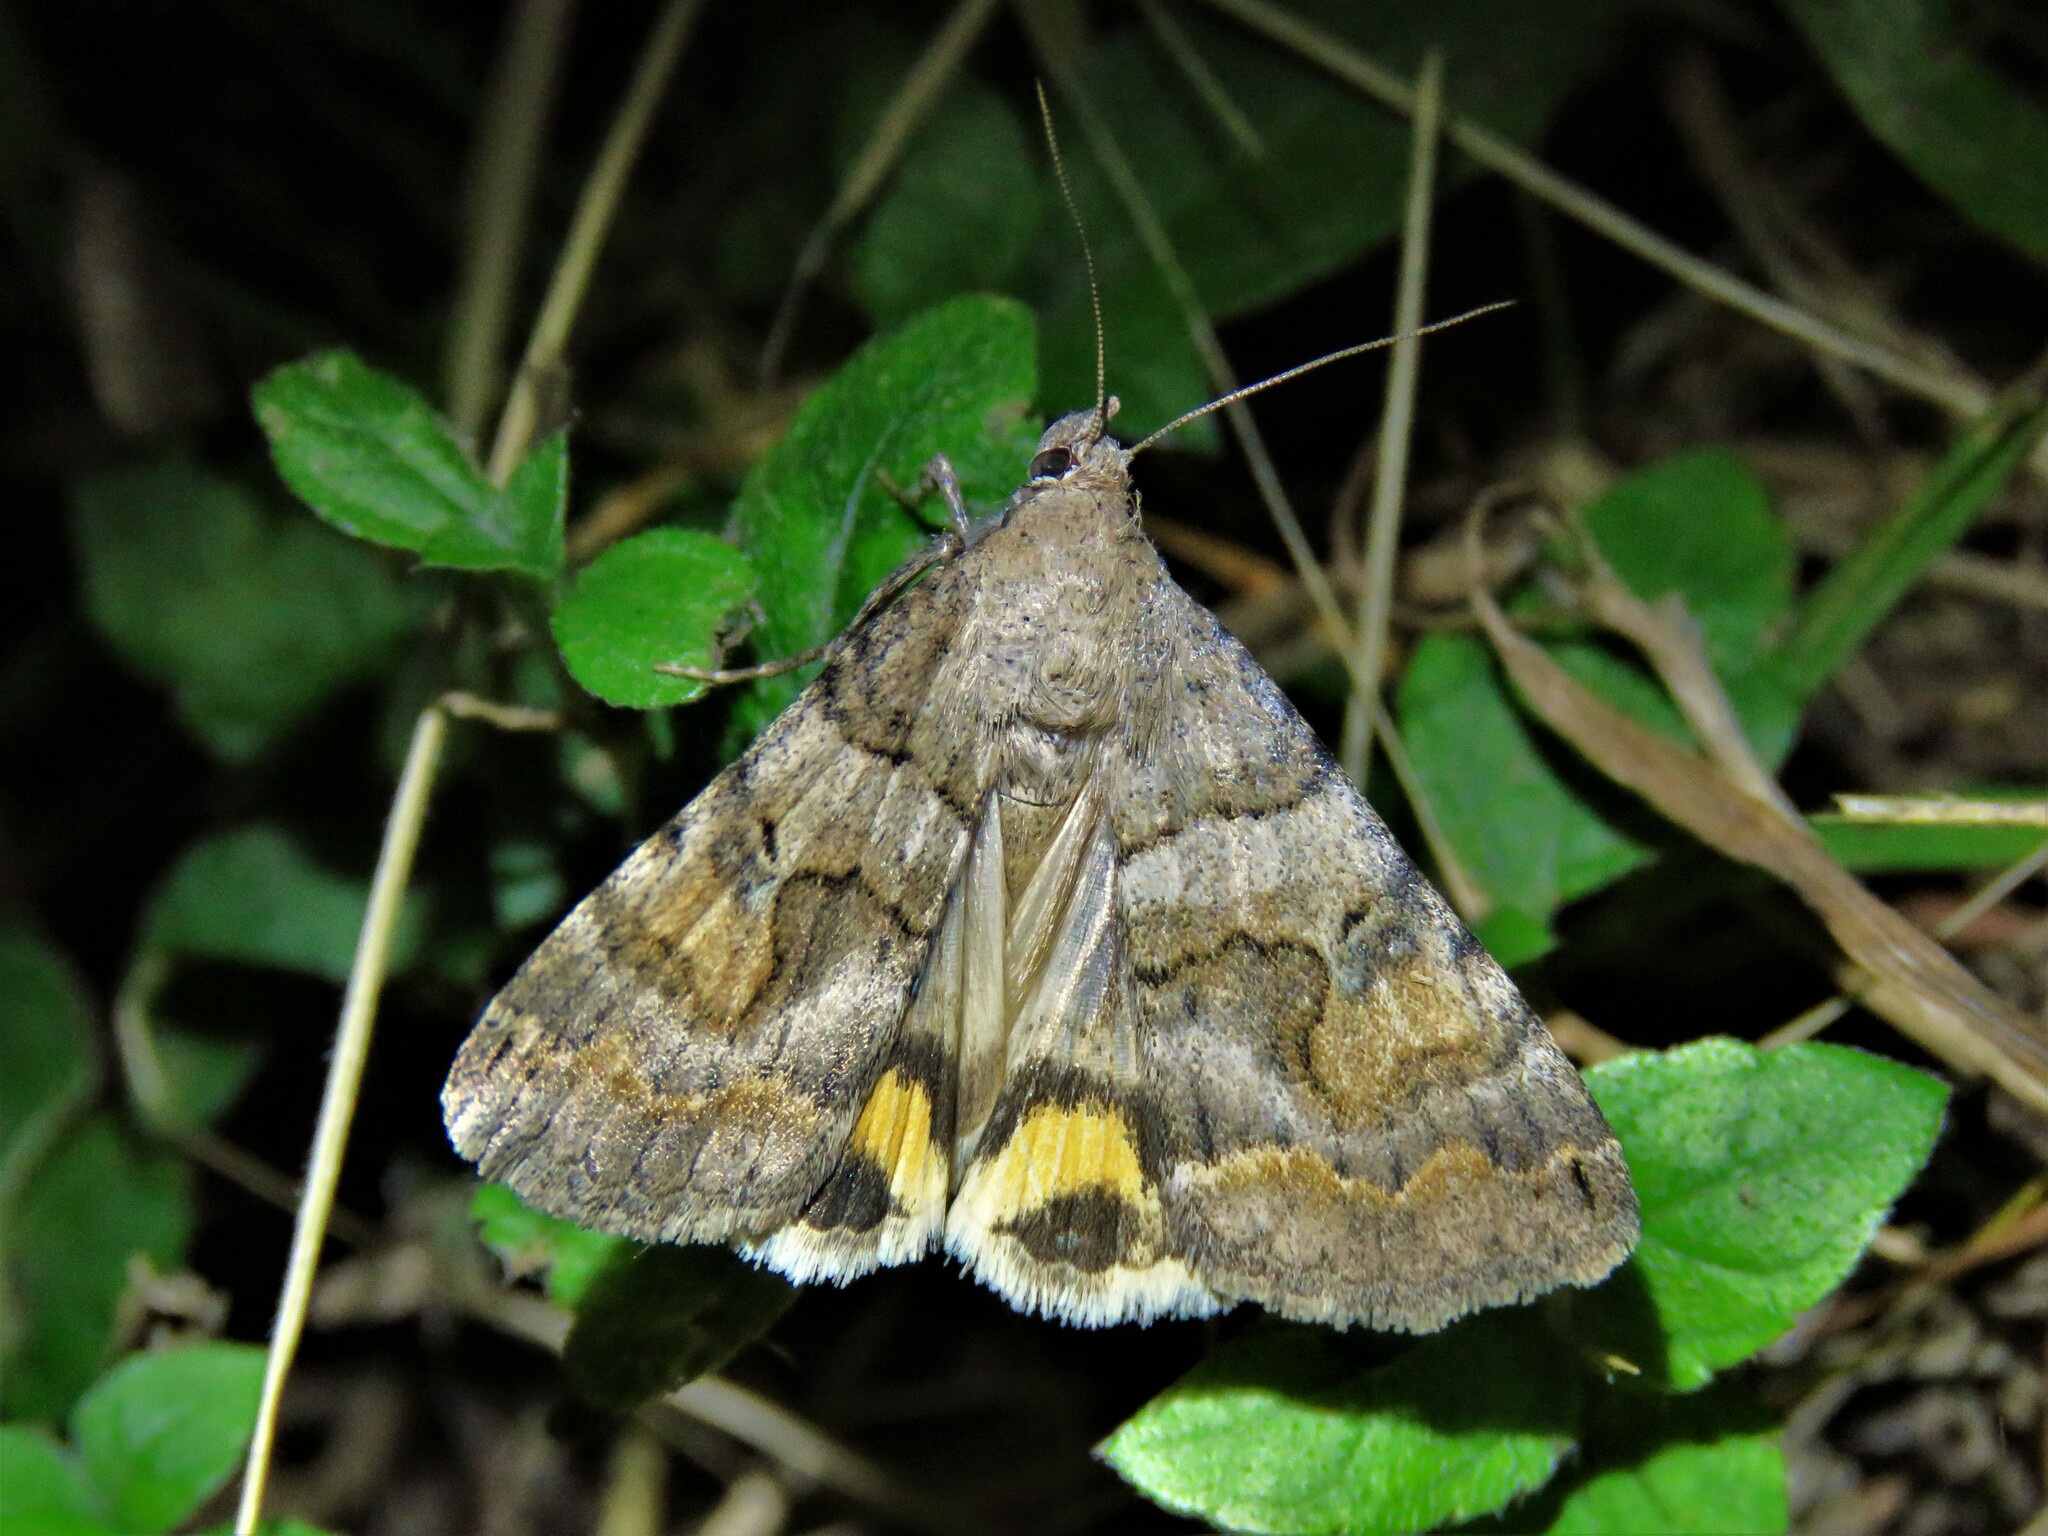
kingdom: Animalia
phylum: Arthropoda
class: Insecta
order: Lepidoptera
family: Erebidae
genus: Bulia
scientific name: Bulia deducta
